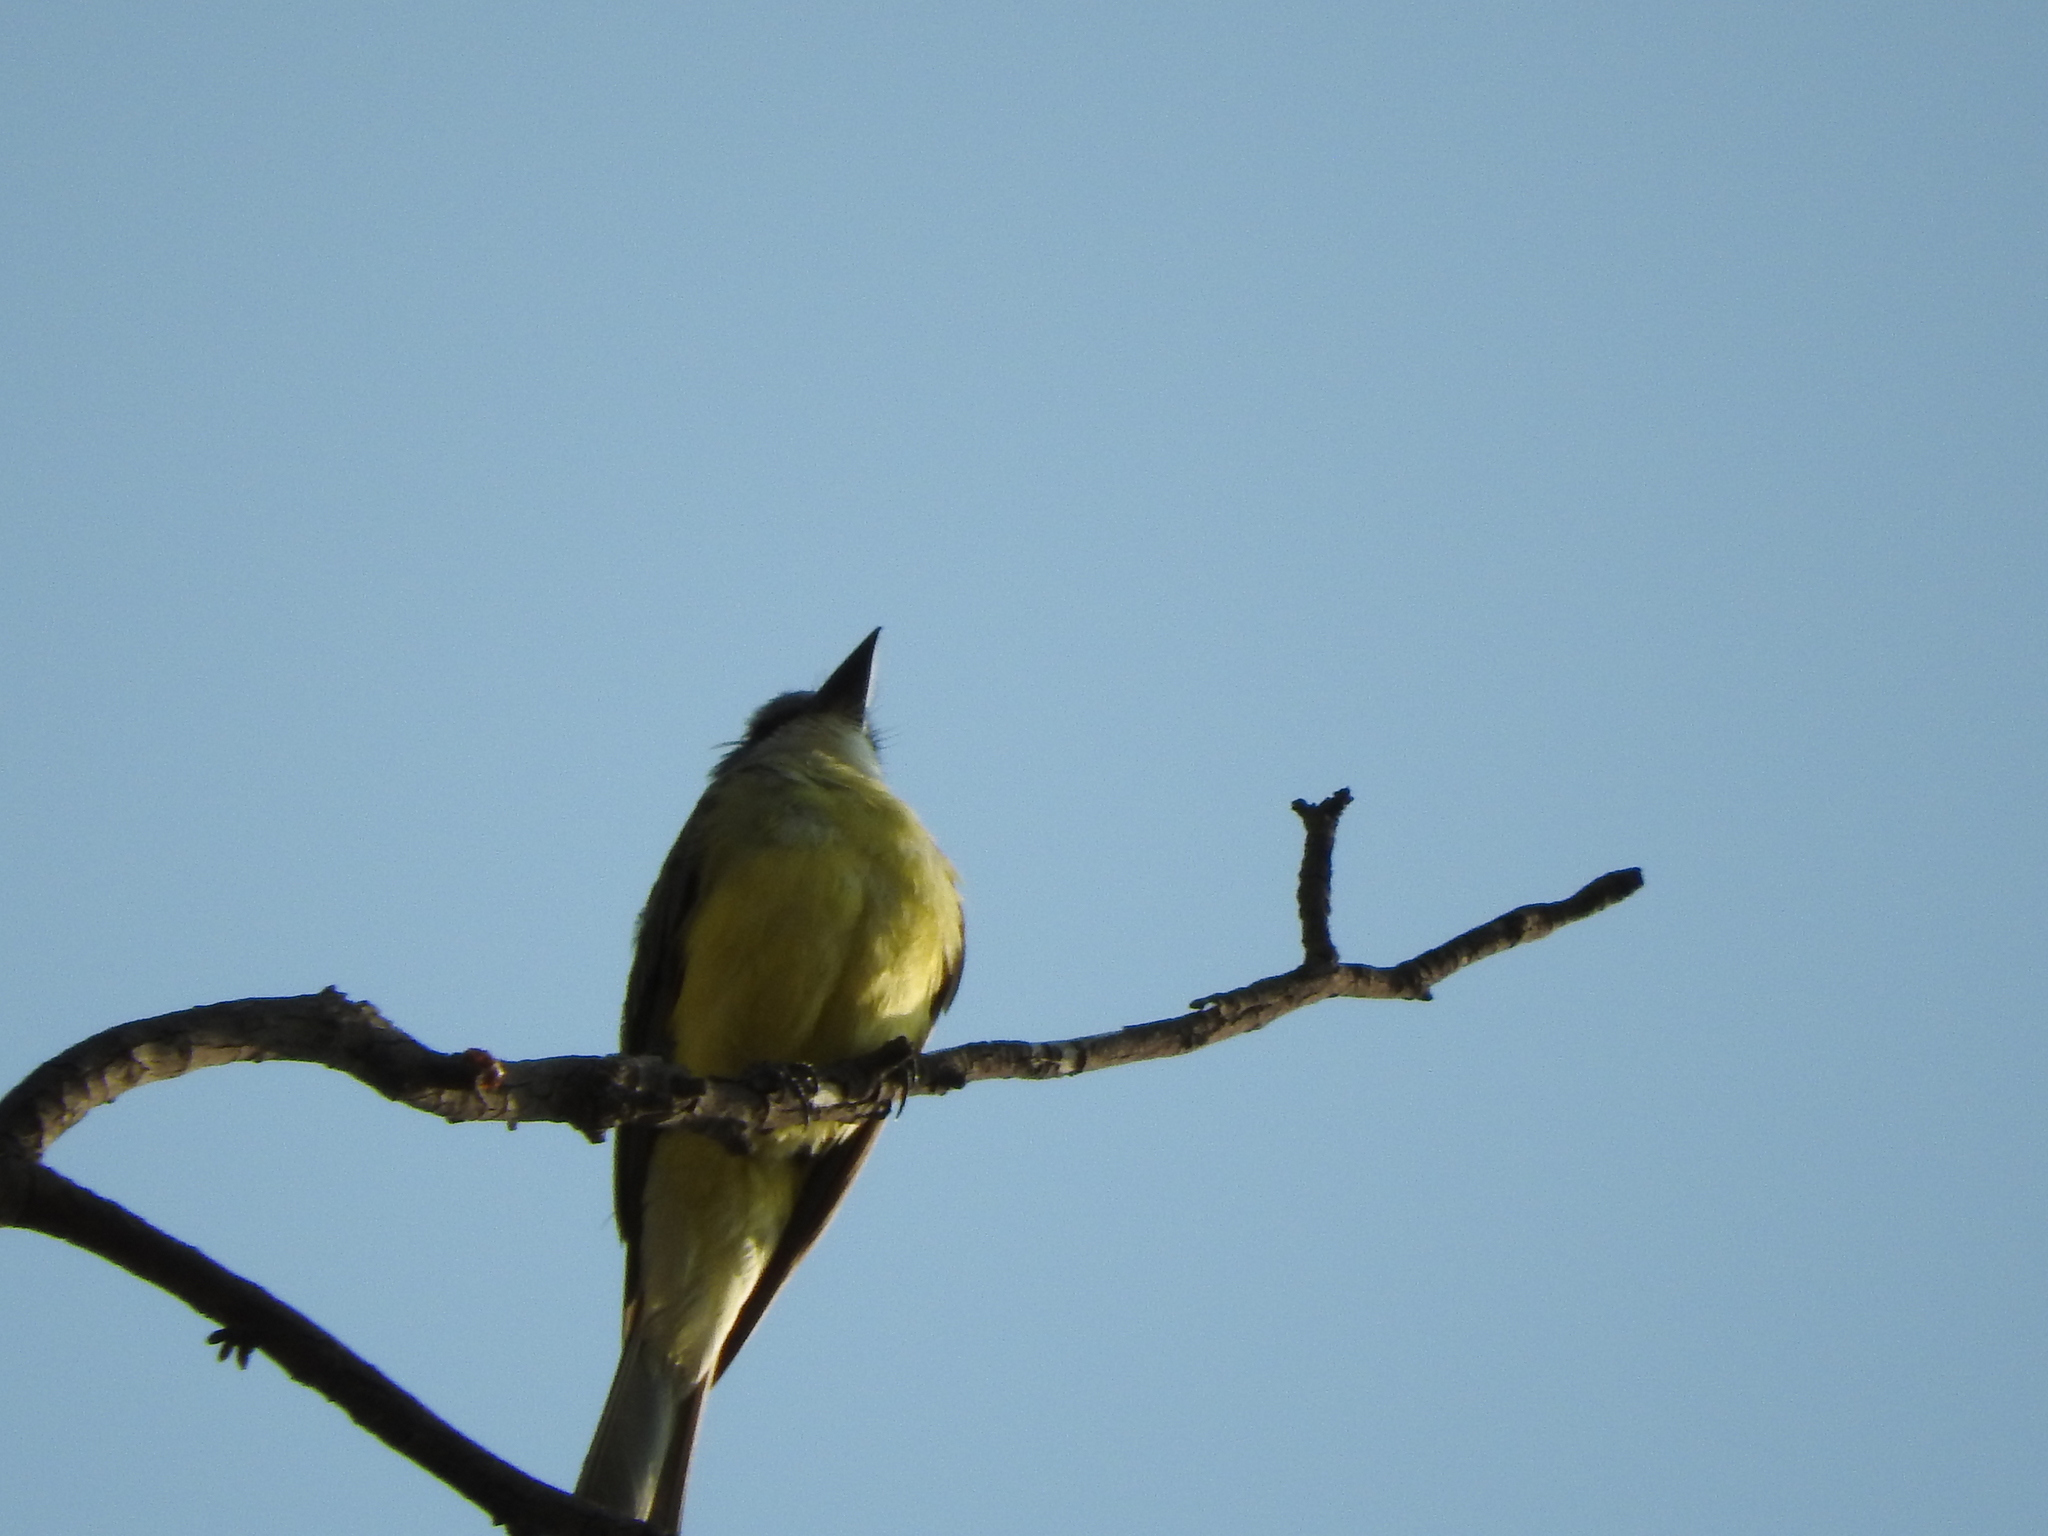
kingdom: Animalia
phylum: Chordata
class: Aves
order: Passeriformes
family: Tyrannidae
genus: Tyrannus
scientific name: Tyrannus melancholicus
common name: Tropical kingbird
